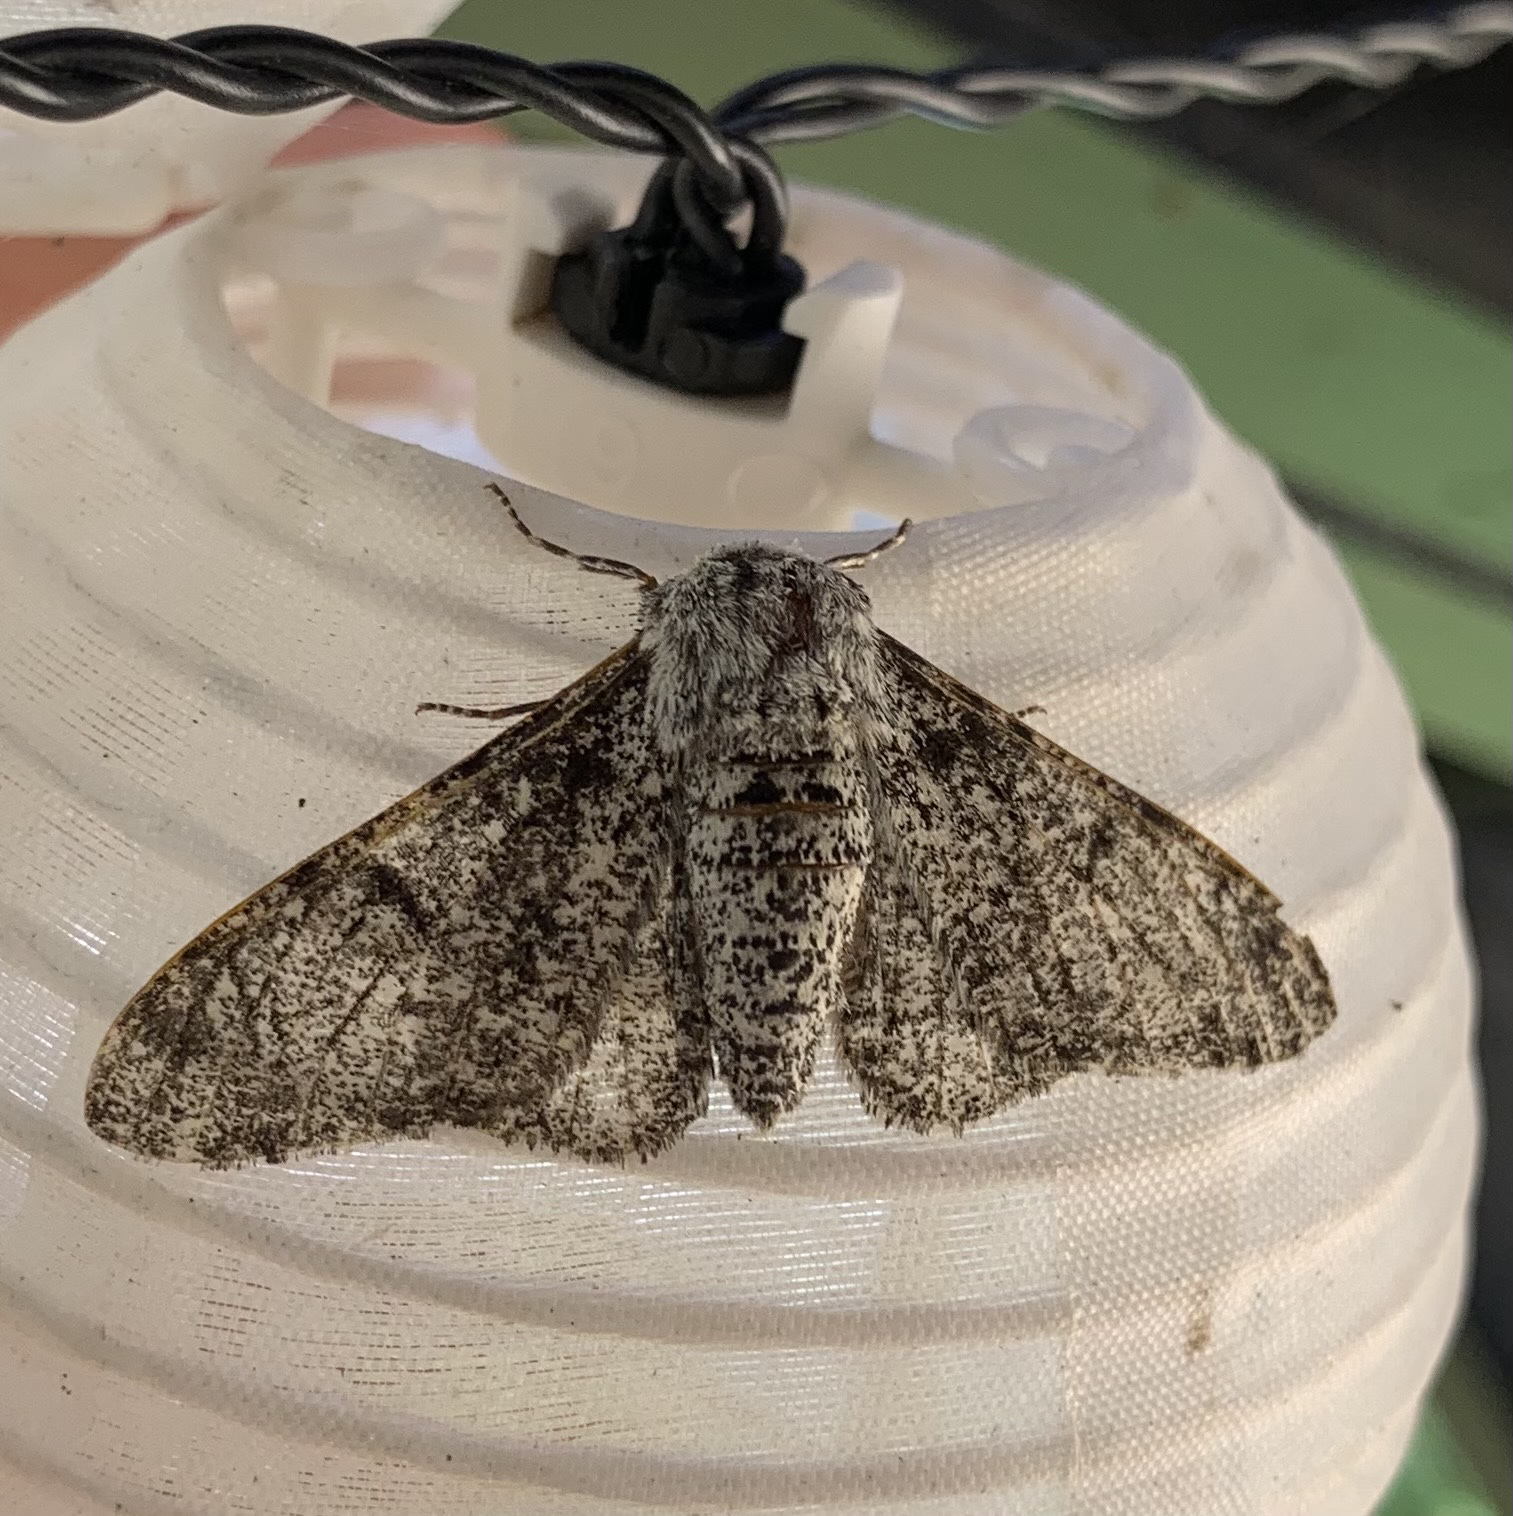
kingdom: Animalia
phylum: Arthropoda
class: Insecta
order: Lepidoptera
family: Geometridae
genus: Biston
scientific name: Biston betularia
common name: Peppered moth
